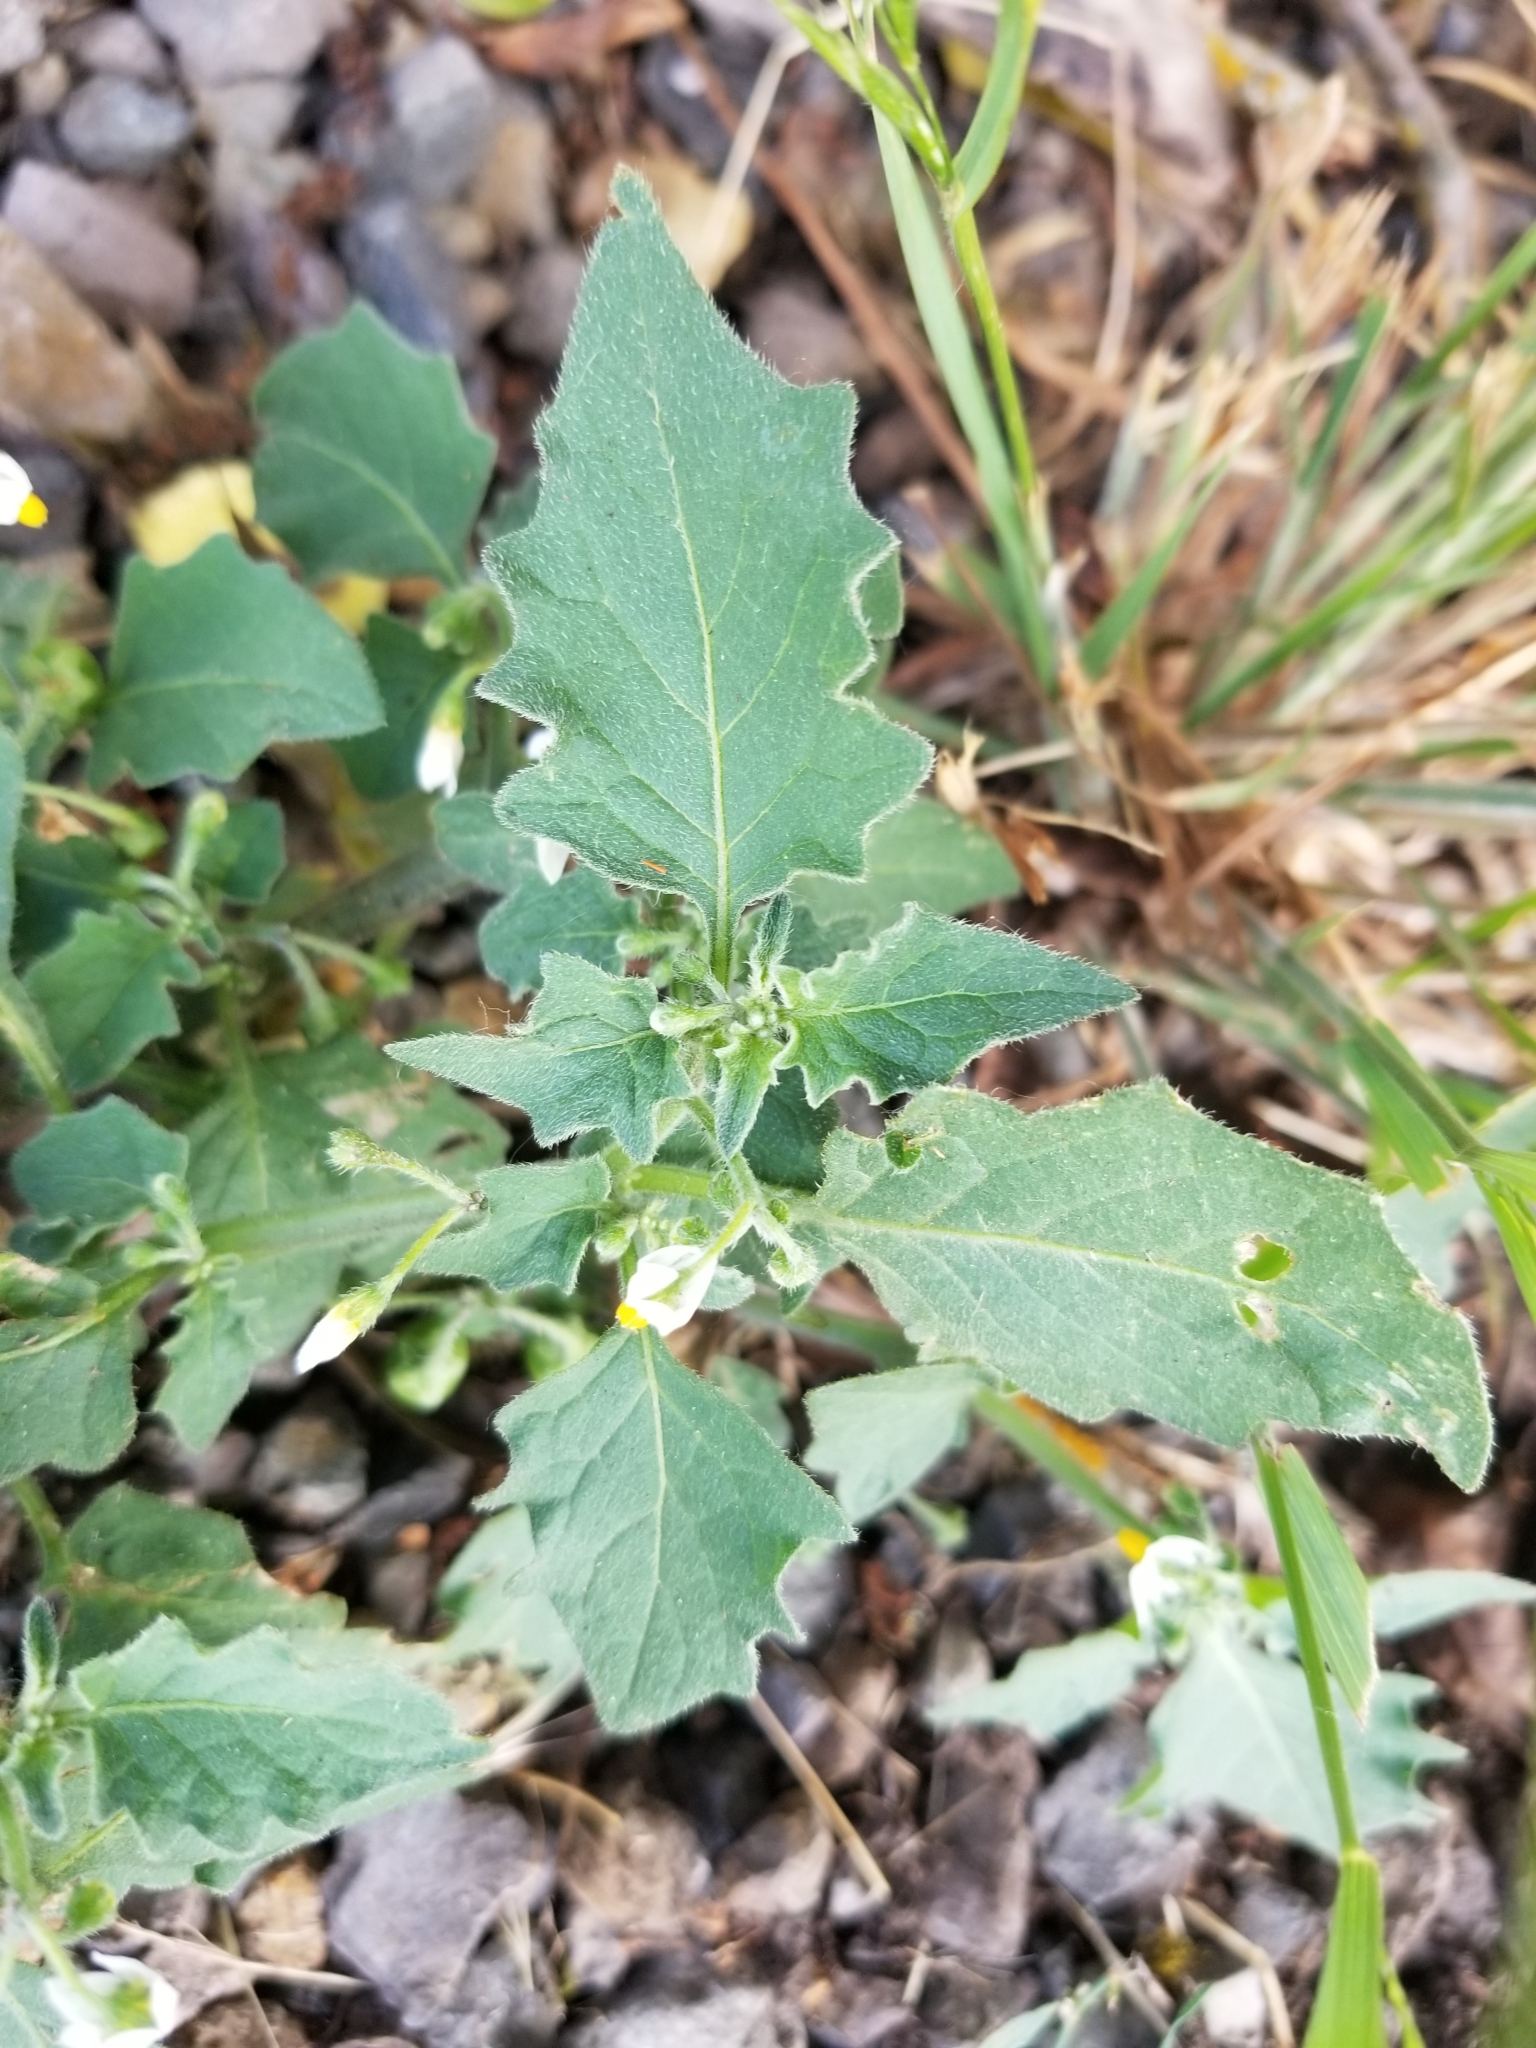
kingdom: Plantae
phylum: Tracheophyta
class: Magnoliopsida
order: Solanales
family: Solanaceae
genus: Solanum
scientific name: Solanum nigrum
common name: Black nightshade
